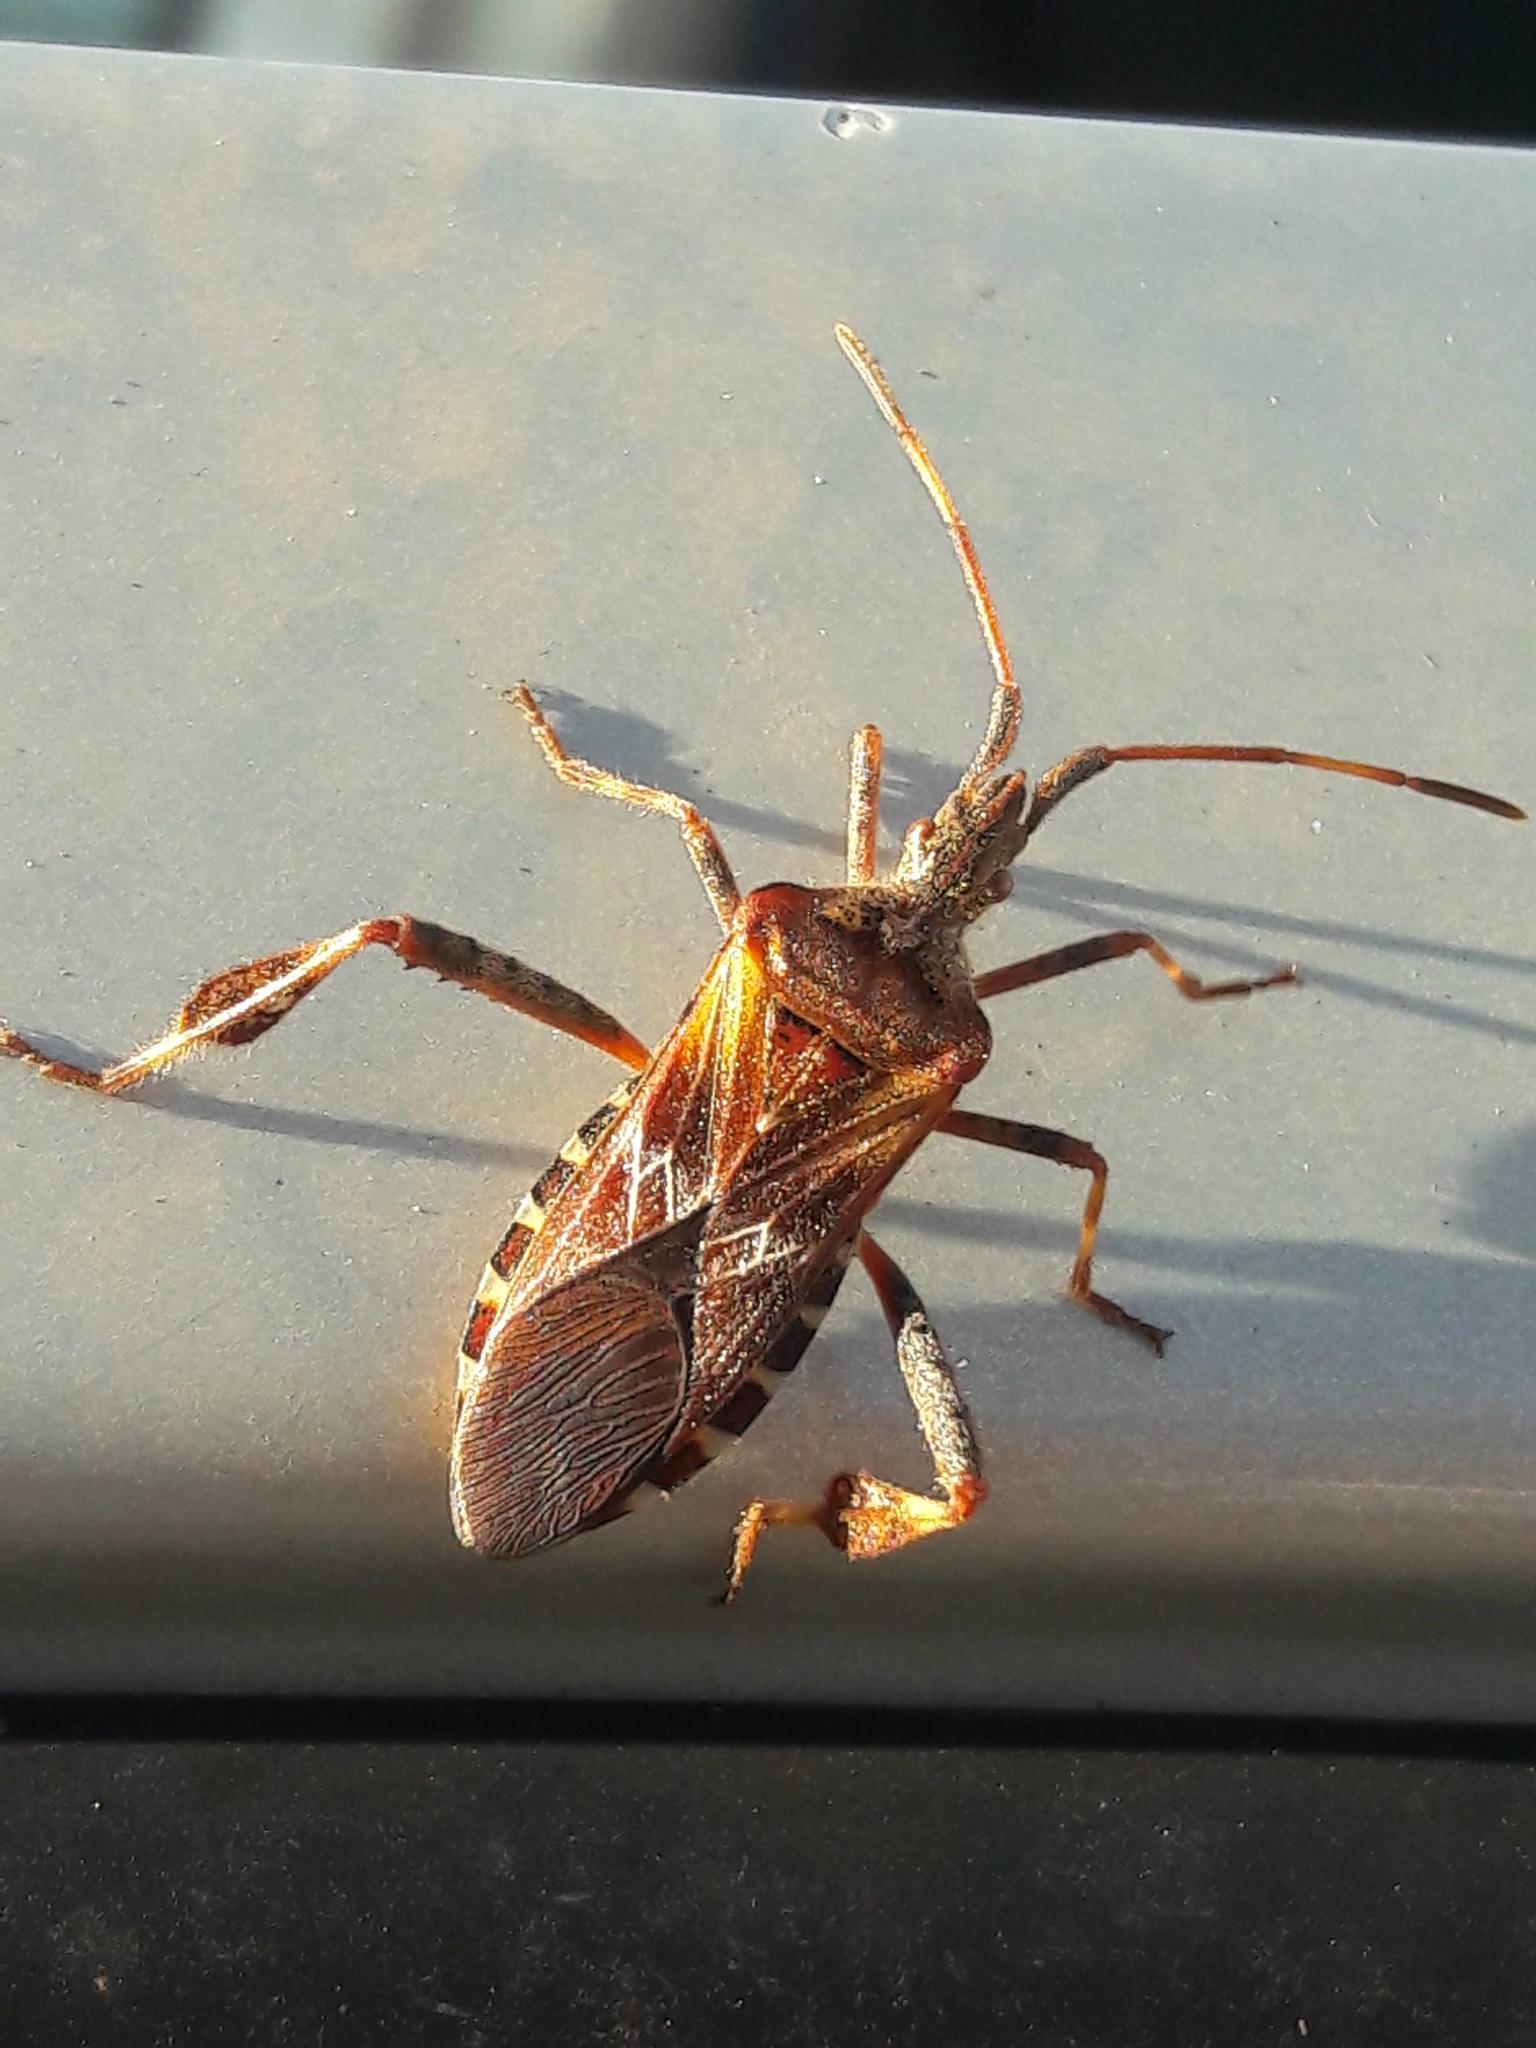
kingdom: Animalia
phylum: Arthropoda
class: Insecta
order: Hemiptera
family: Coreidae
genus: Leptoglossus
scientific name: Leptoglossus occidentalis
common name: Western conifer-seed bug
